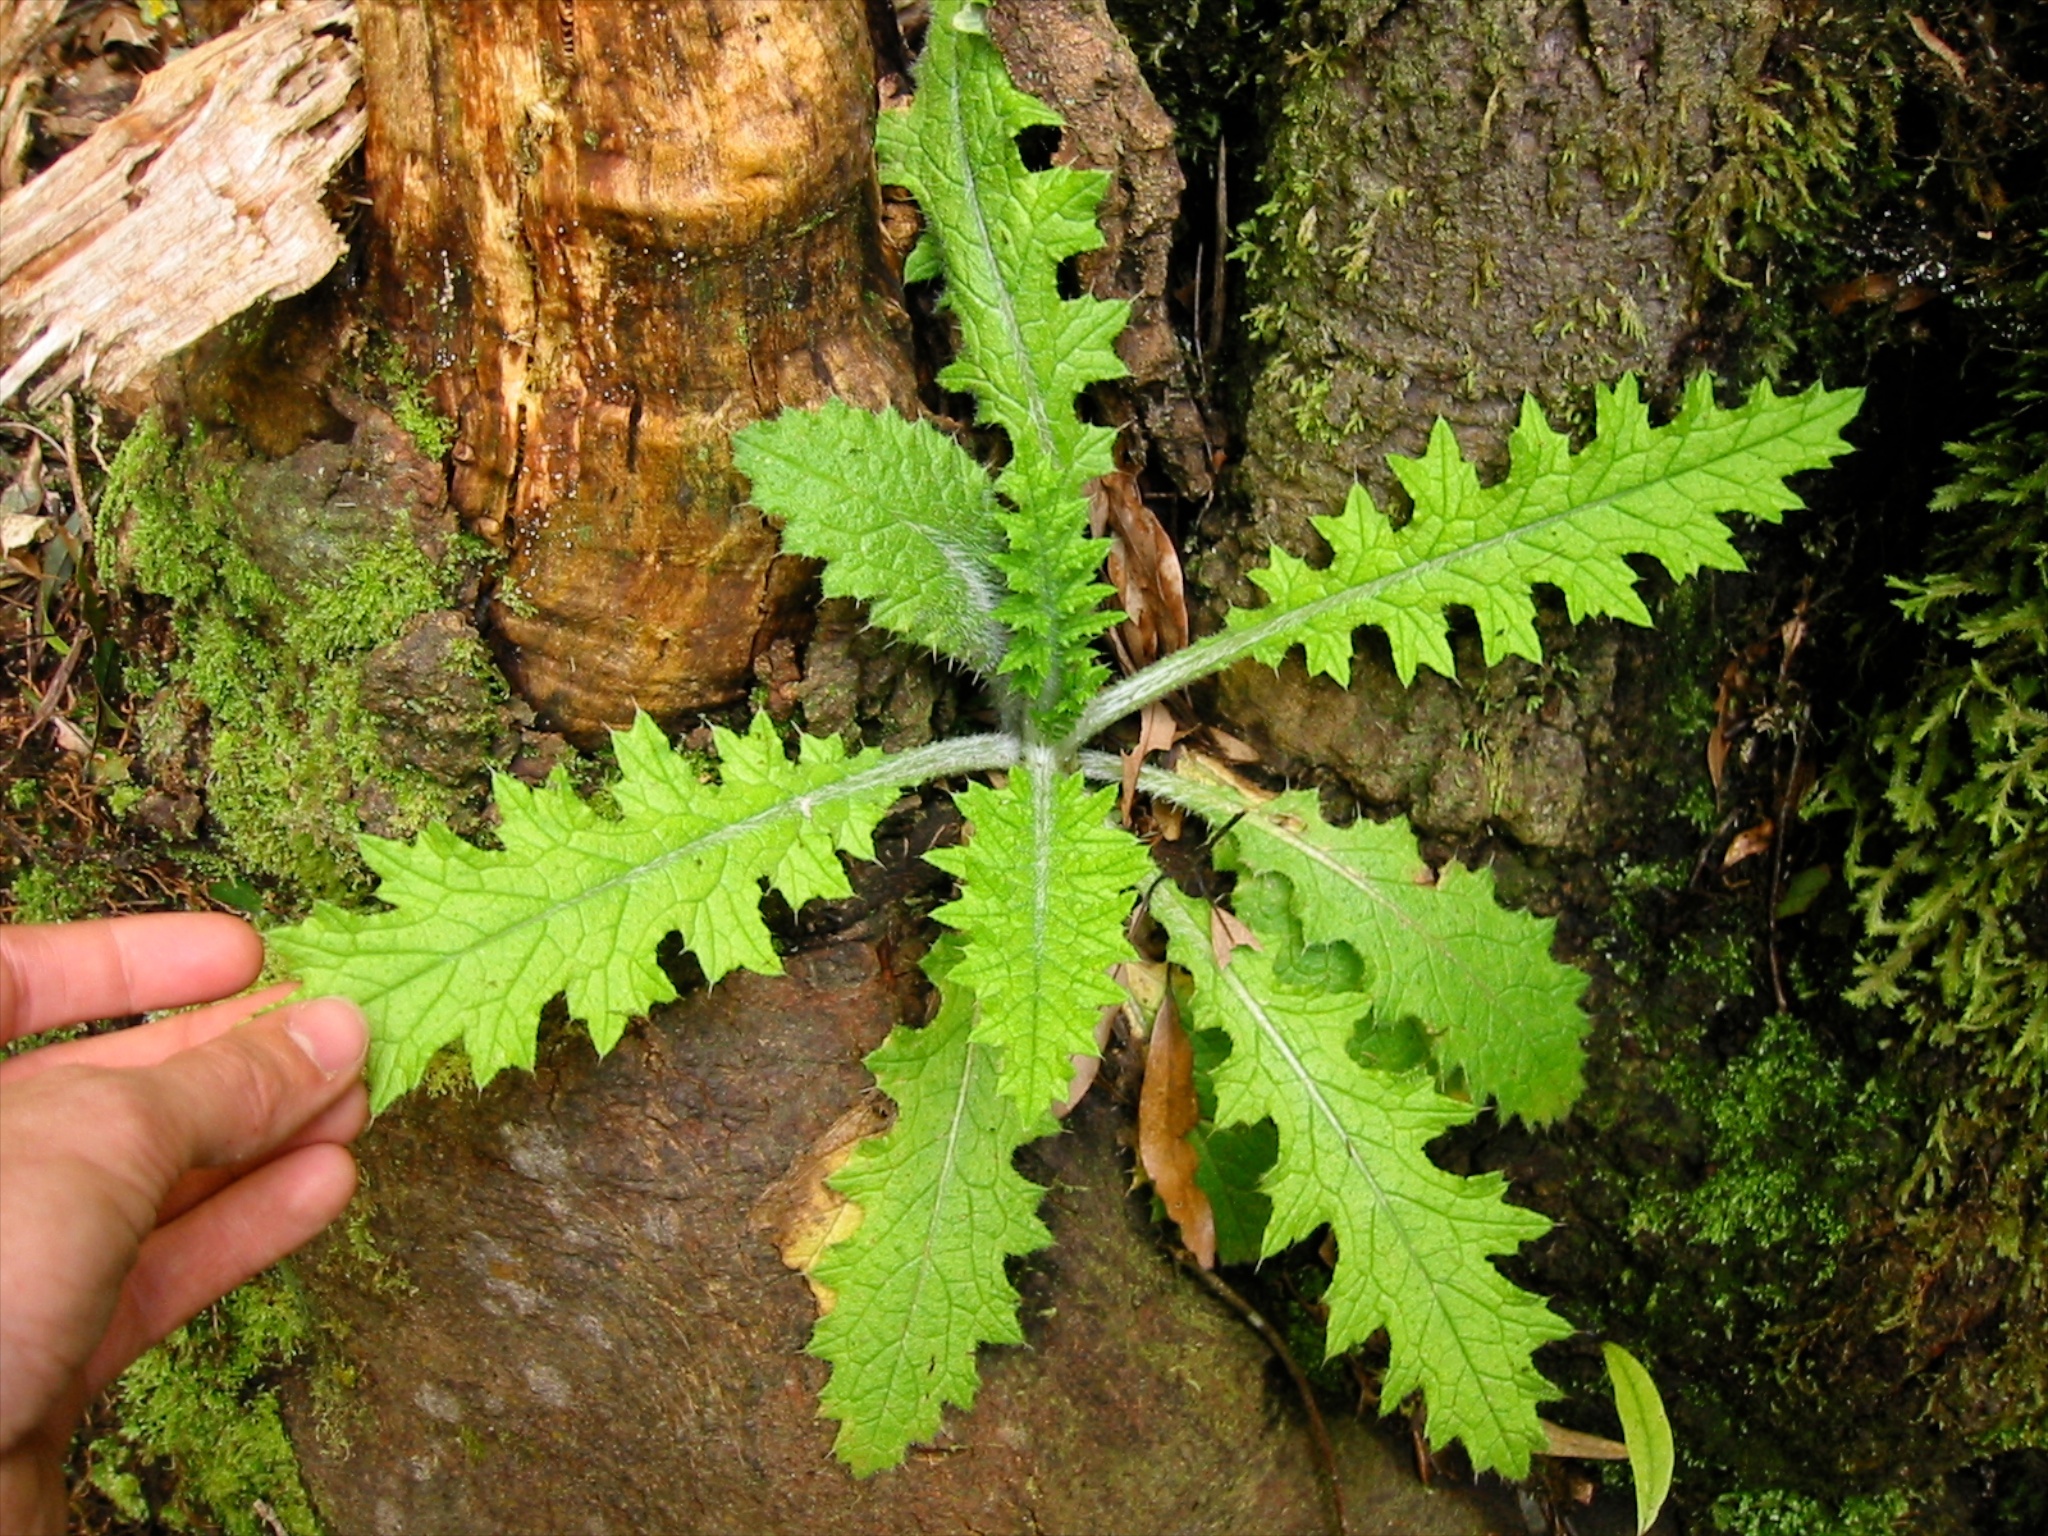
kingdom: Plantae
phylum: Tracheophyta
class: Magnoliopsida
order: Asterales
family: Asteraceae
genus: Cirsium
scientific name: Cirsium vulgare
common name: Bull thistle
